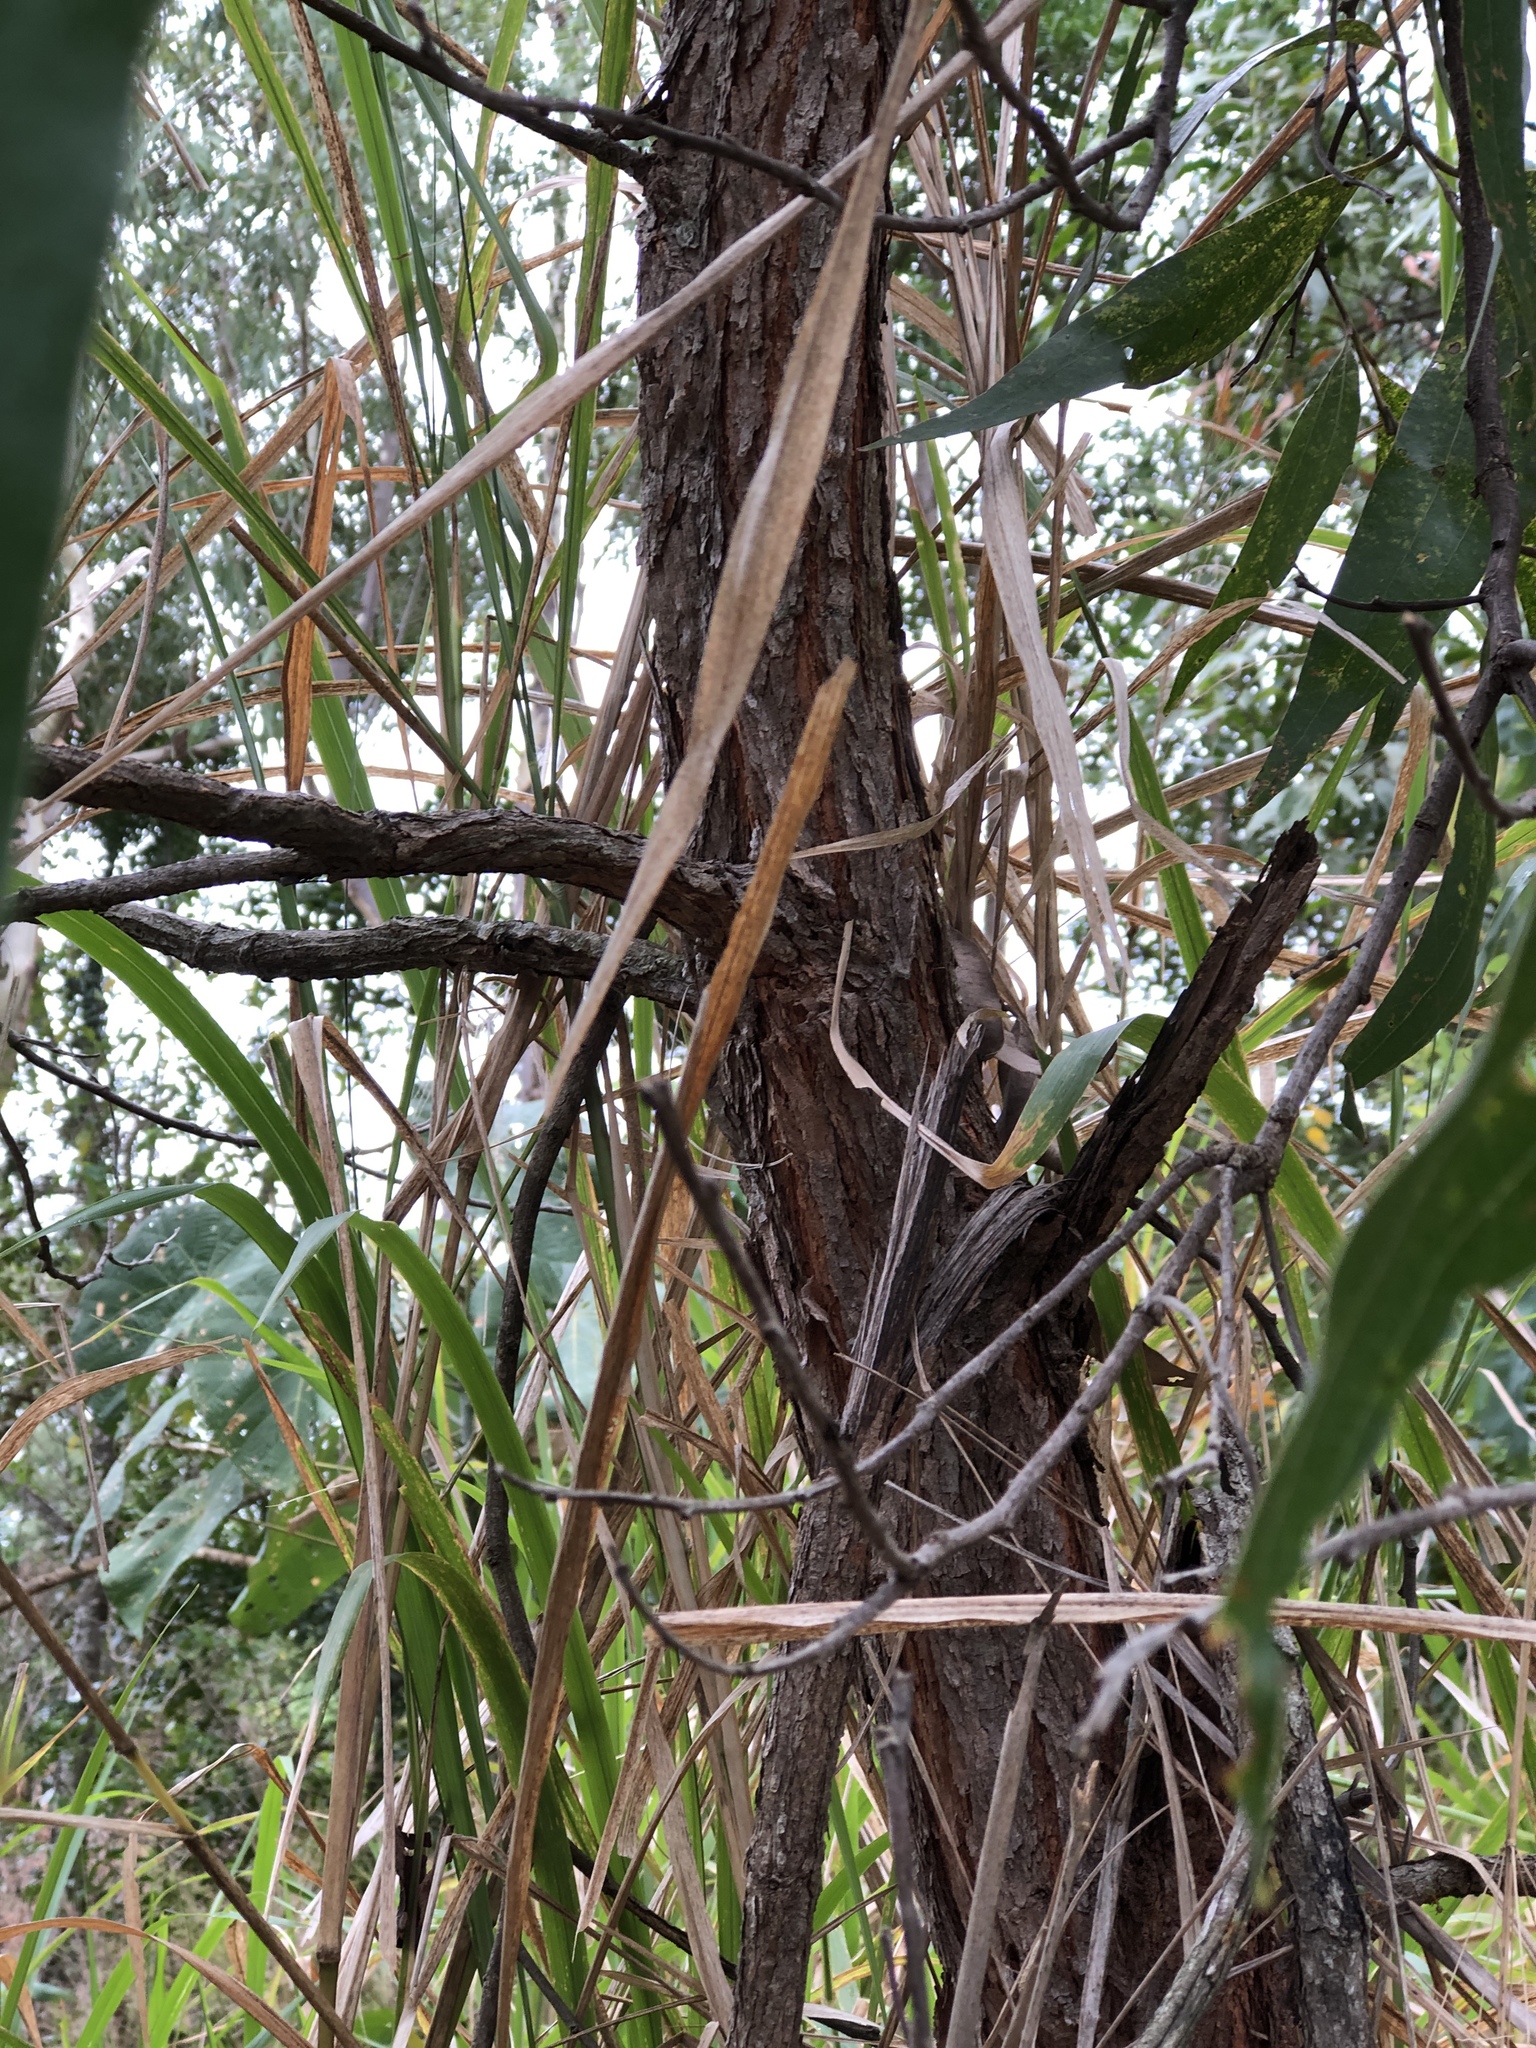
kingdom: Plantae
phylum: Tracheophyta
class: Magnoliopsida
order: Fabales
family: Fabaceae
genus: Acacia
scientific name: Acacia flavescens
